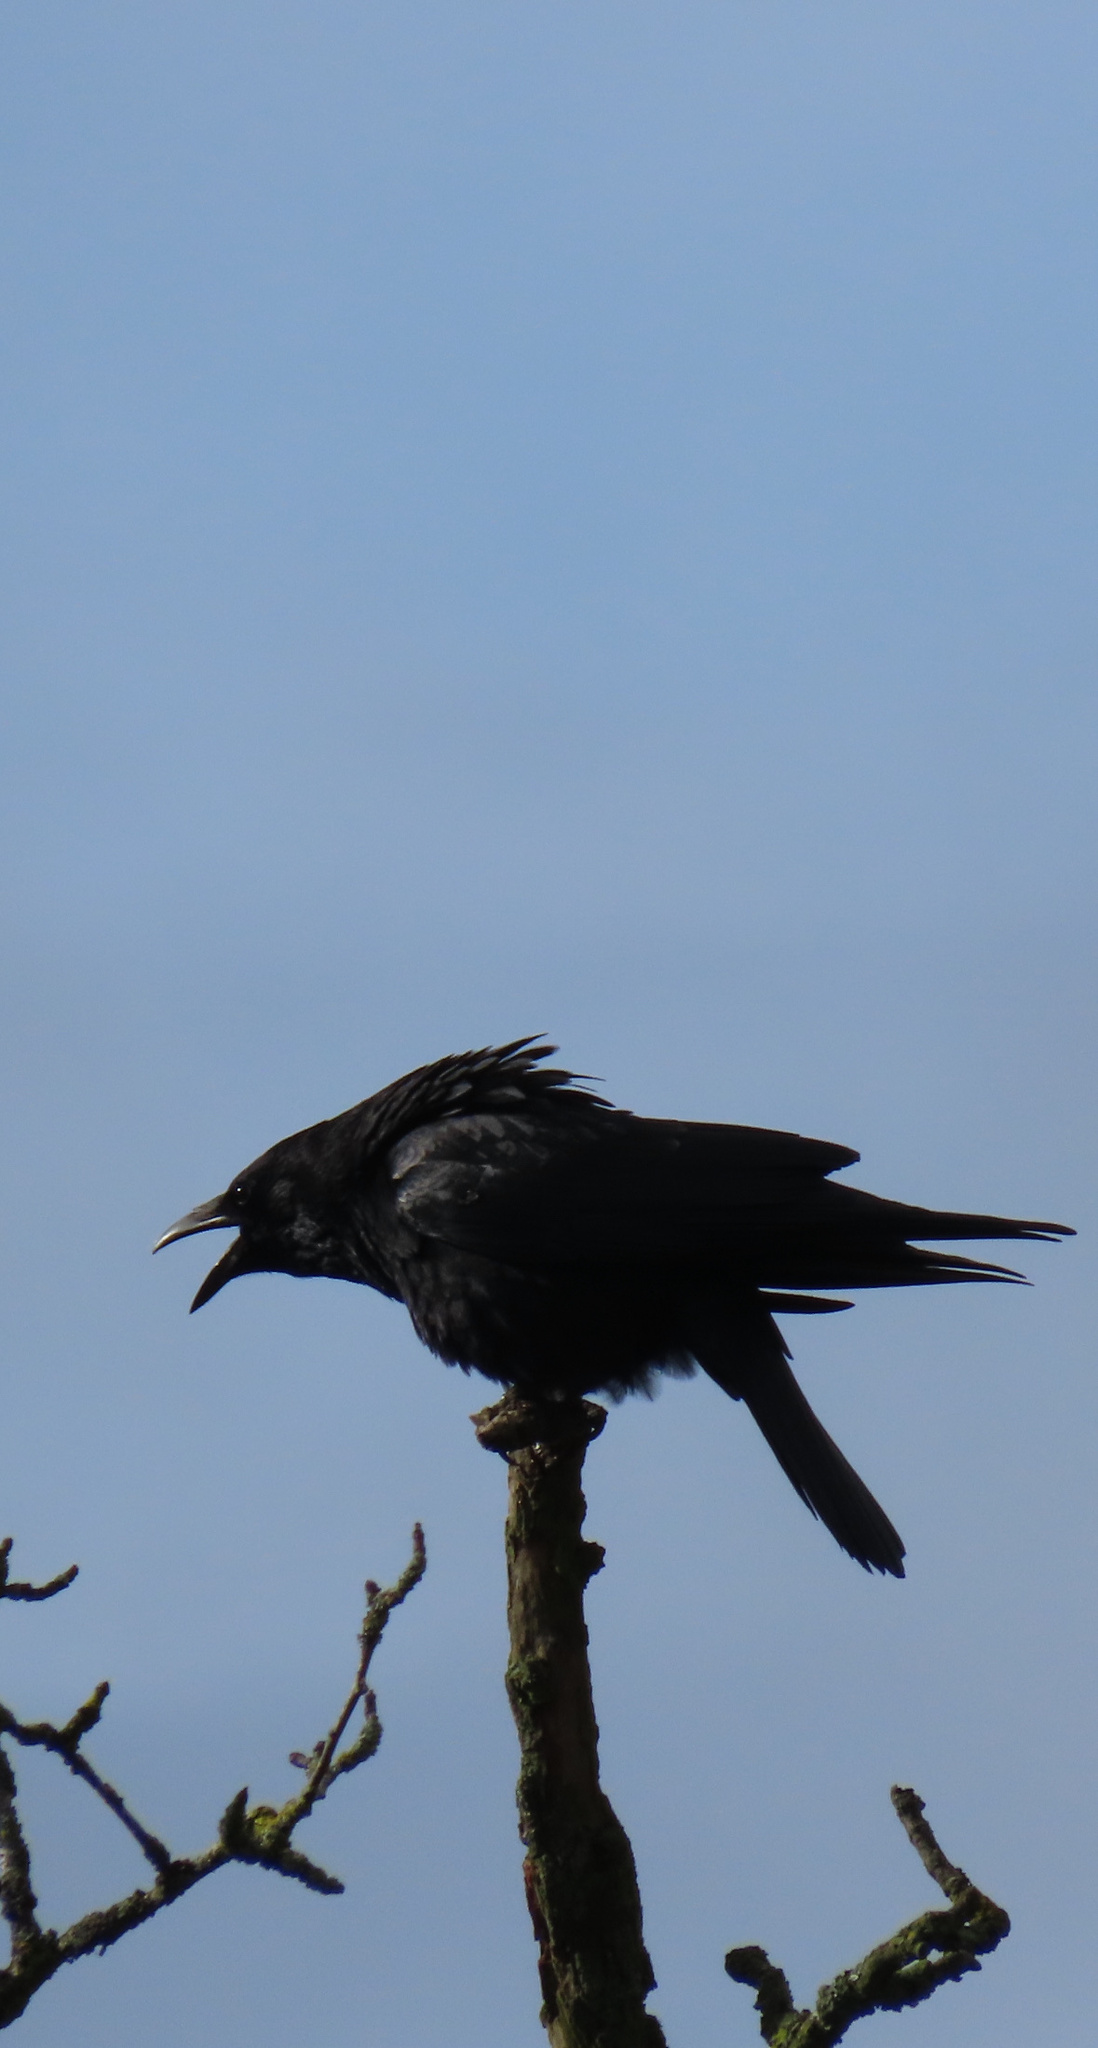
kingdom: Animalia
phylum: Chordata
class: Aves
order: Passeriformes
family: Corvidae
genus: Corvus
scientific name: Corvus corone
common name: Carrion crow
